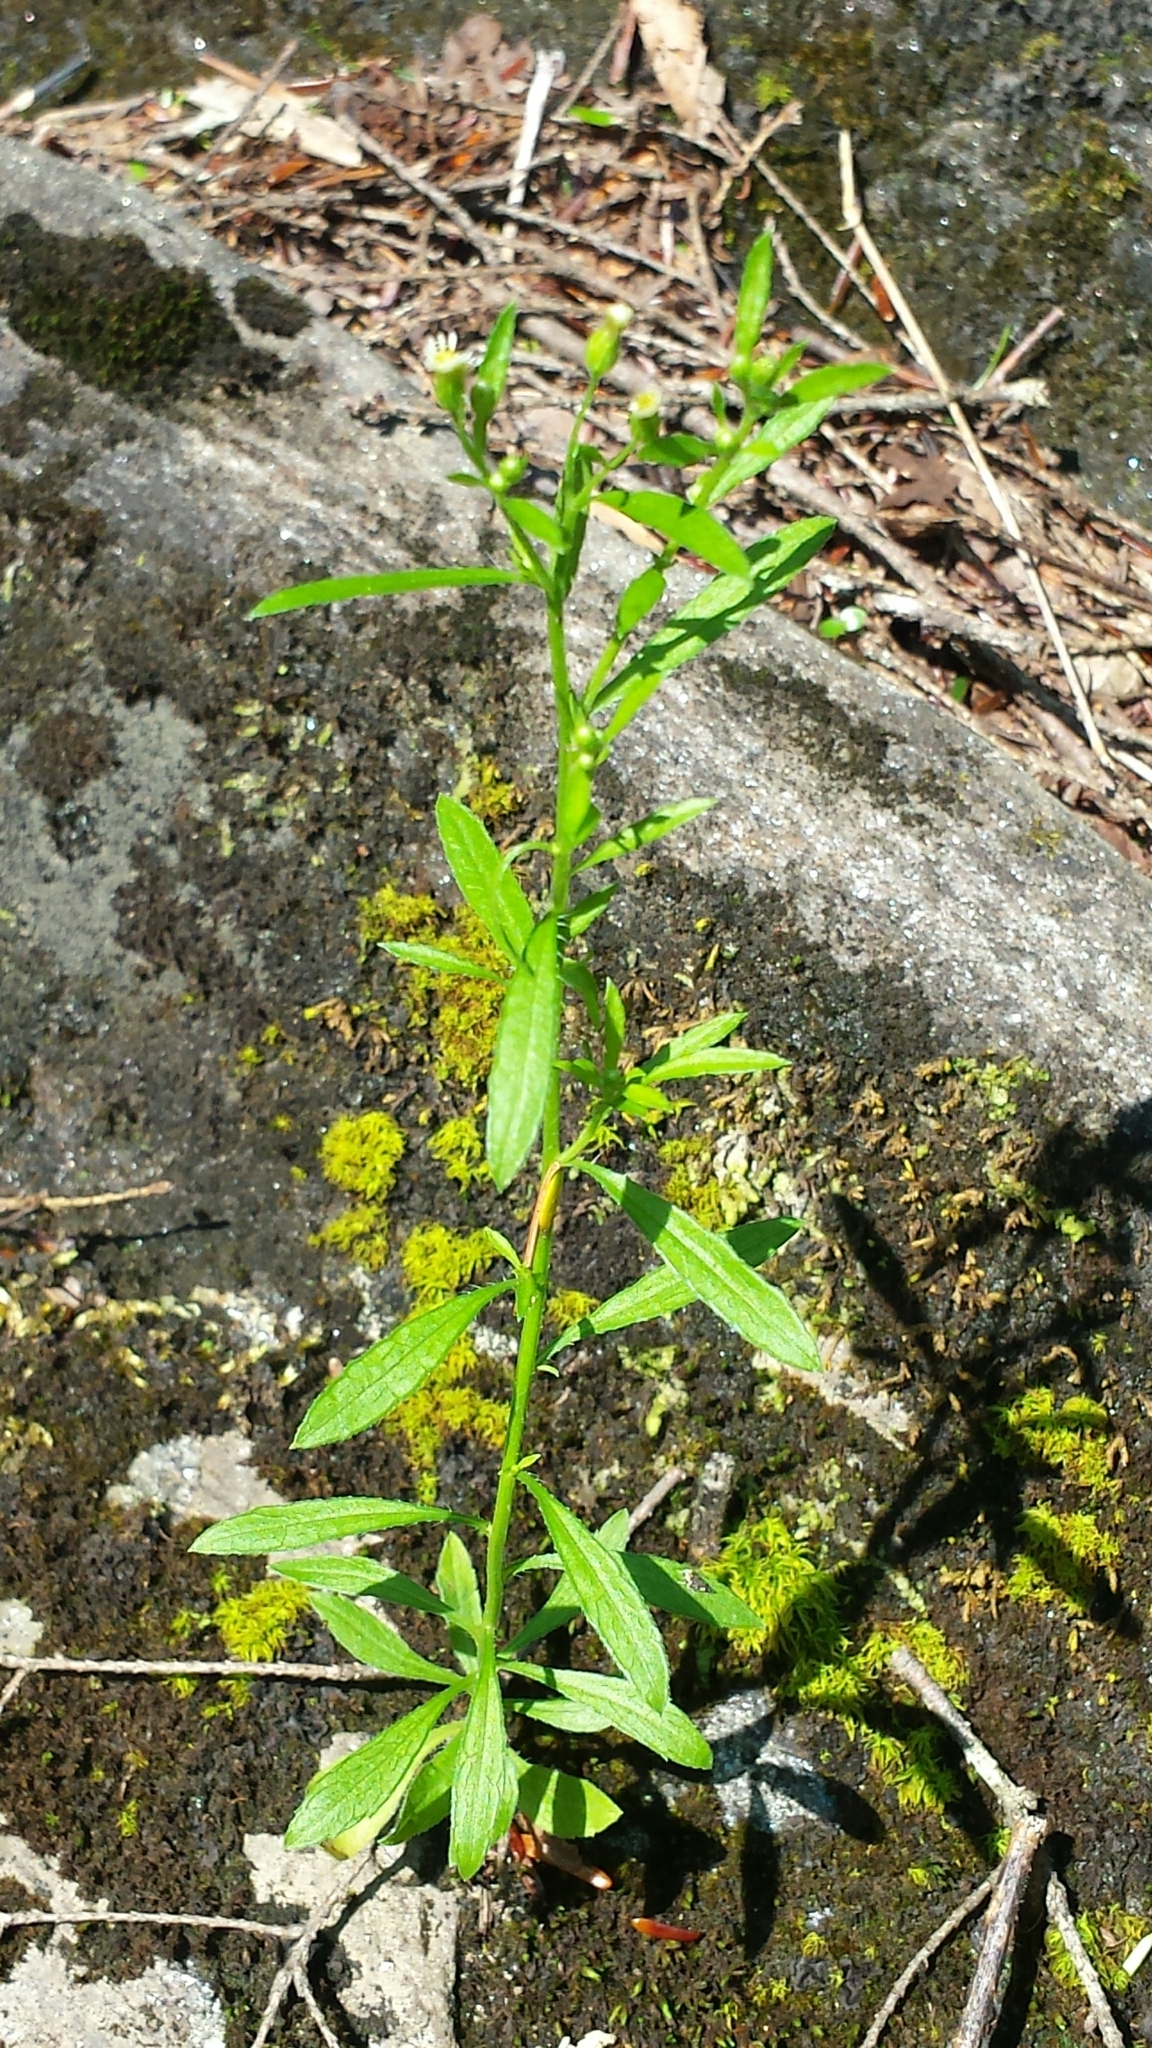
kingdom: Plantae
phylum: Tracheophyta
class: Magnoliopsida
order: Asterales
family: Asteraceae
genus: Erigeron
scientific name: Erigeron canadensis
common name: Canadian fleabane
